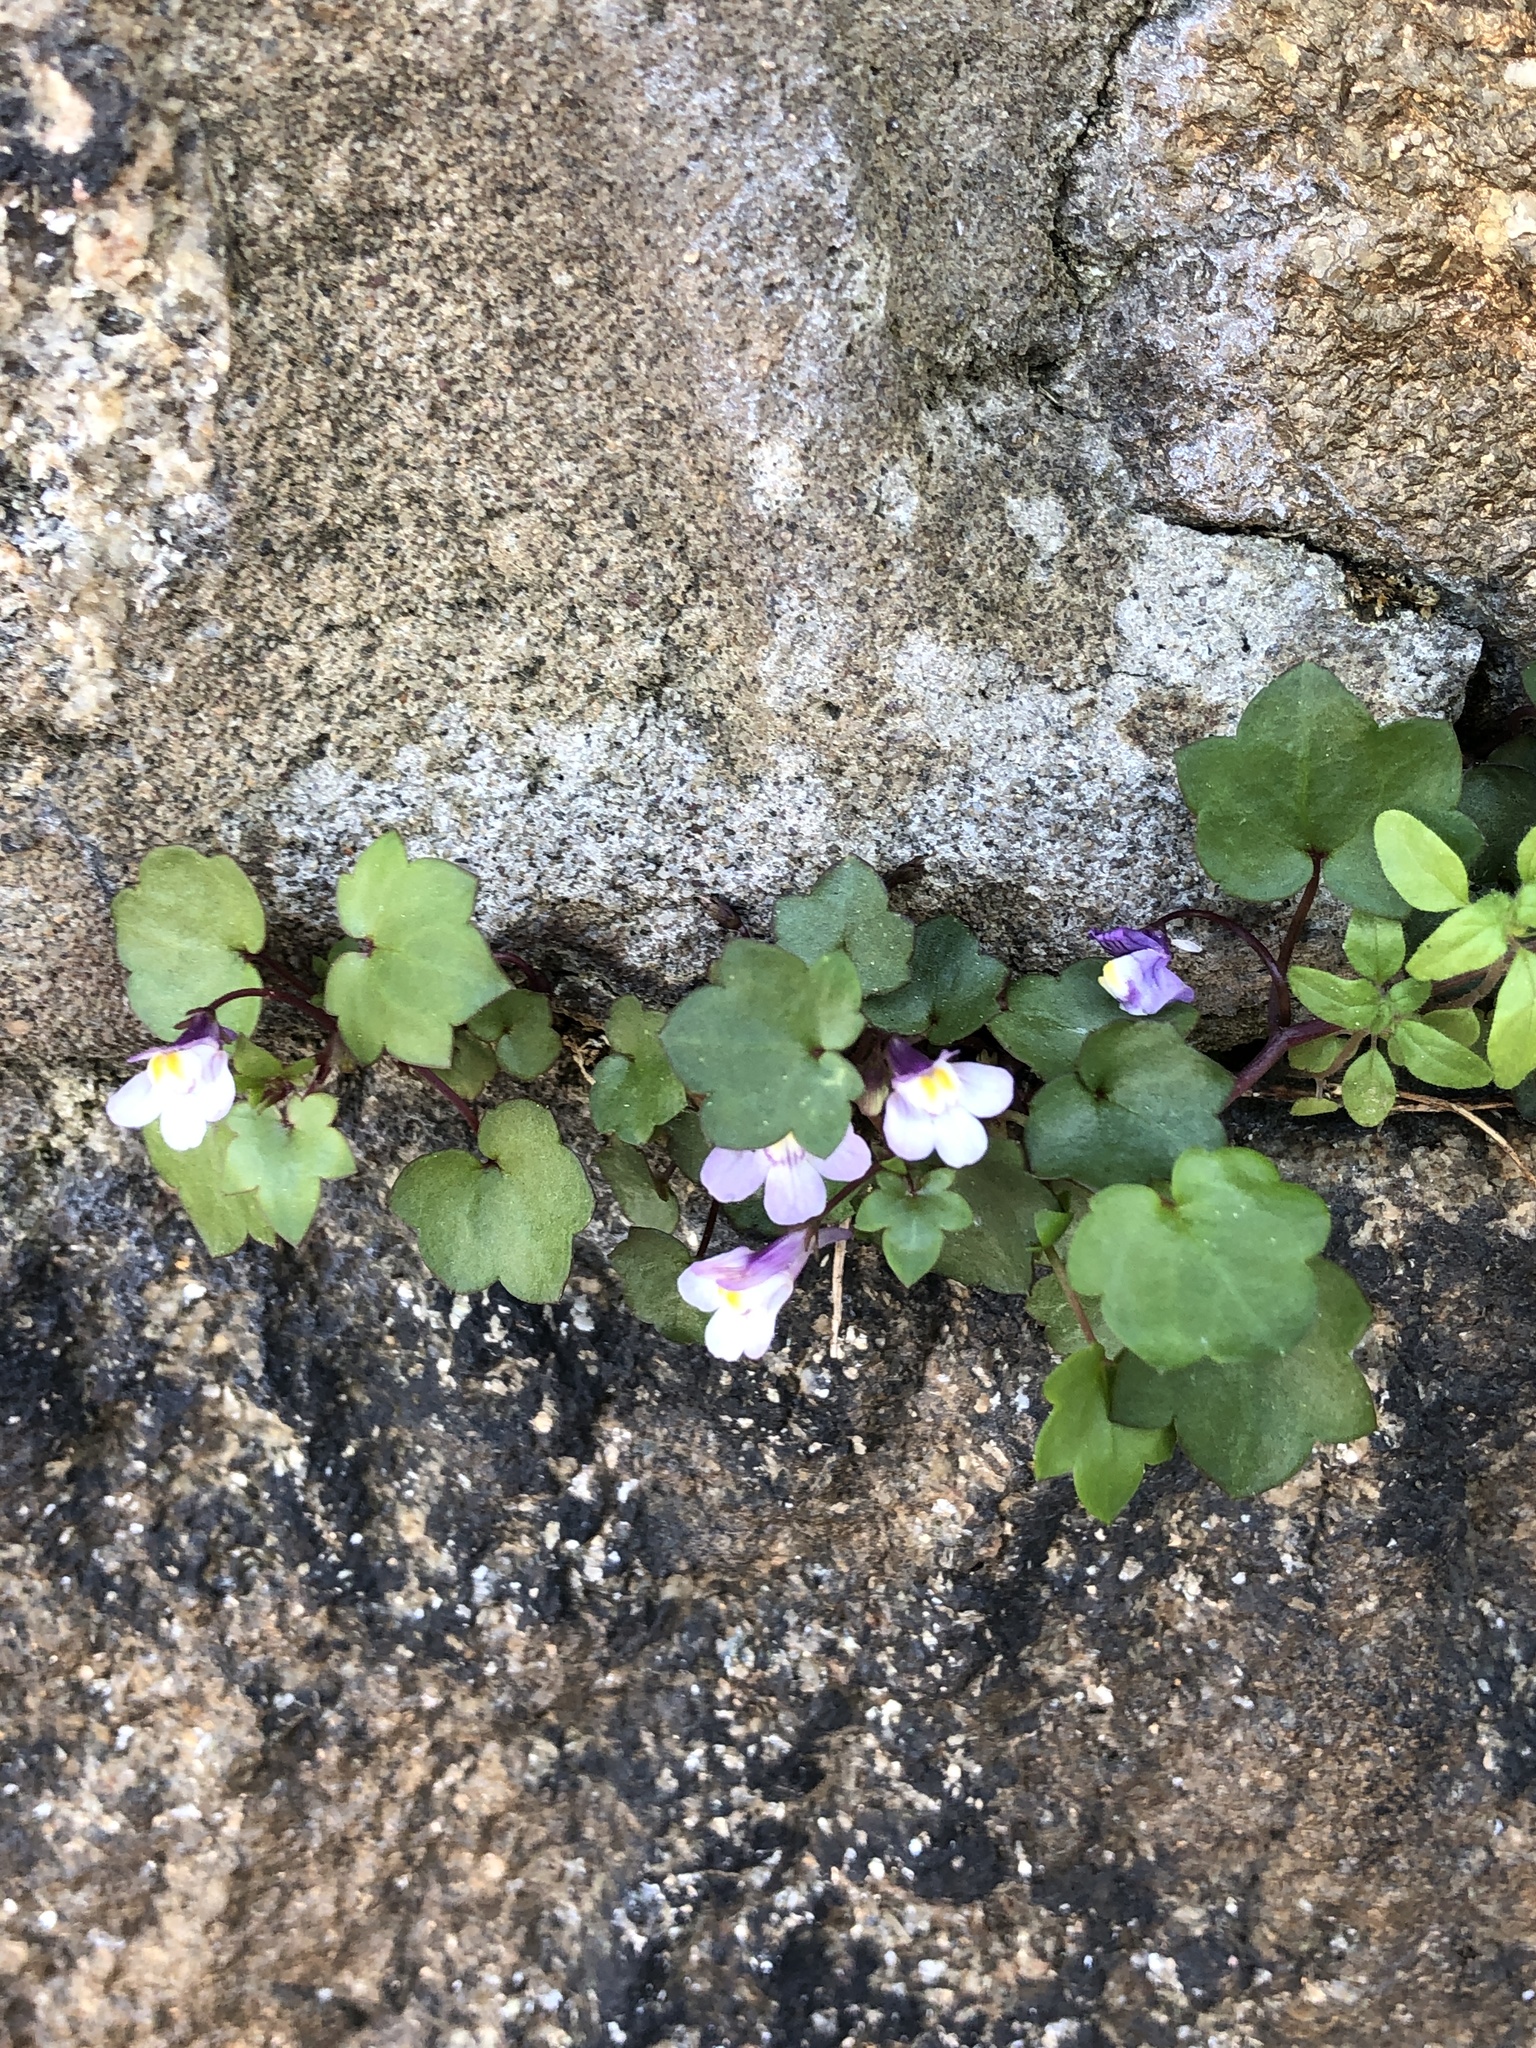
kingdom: Plantae
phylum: Tracheophyta
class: Magnoliopsida
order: Lamiales
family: Plantaginaceae
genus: Cymbalaria
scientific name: Cymbalaria muralis
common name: Ivy-leaved toadflax
